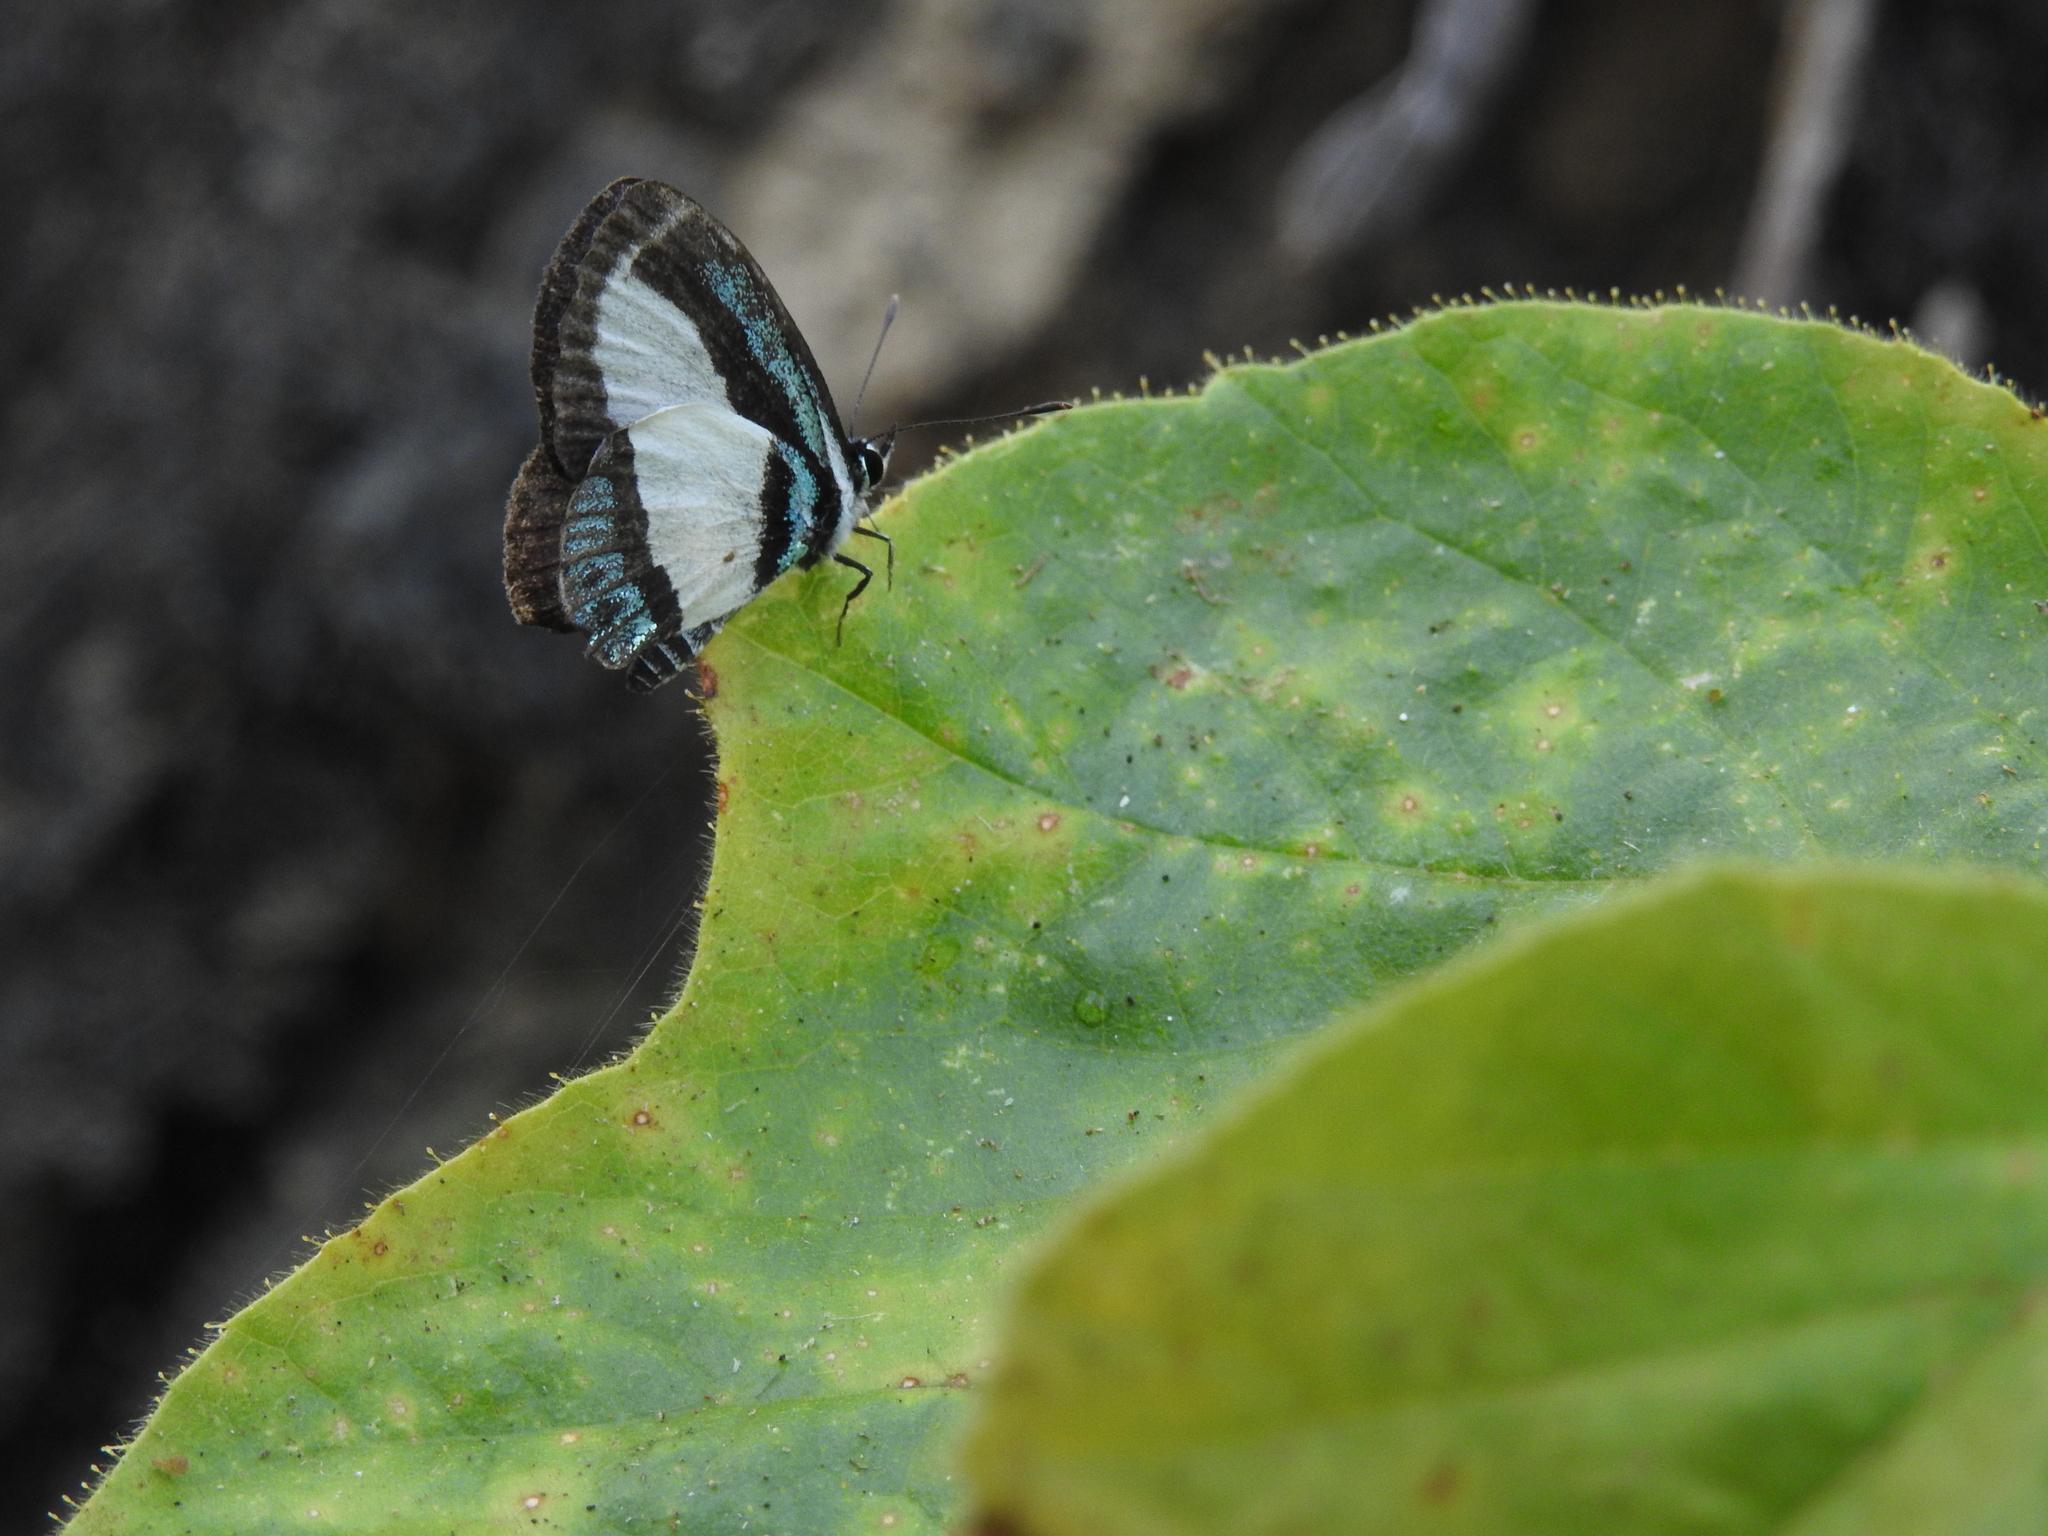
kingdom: Animalia
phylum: Arthropoda
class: Insecta
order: Lepidoptera
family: Lycaenidae
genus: Psychonotis
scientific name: Psychonotis caelius
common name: Small green banded blue
